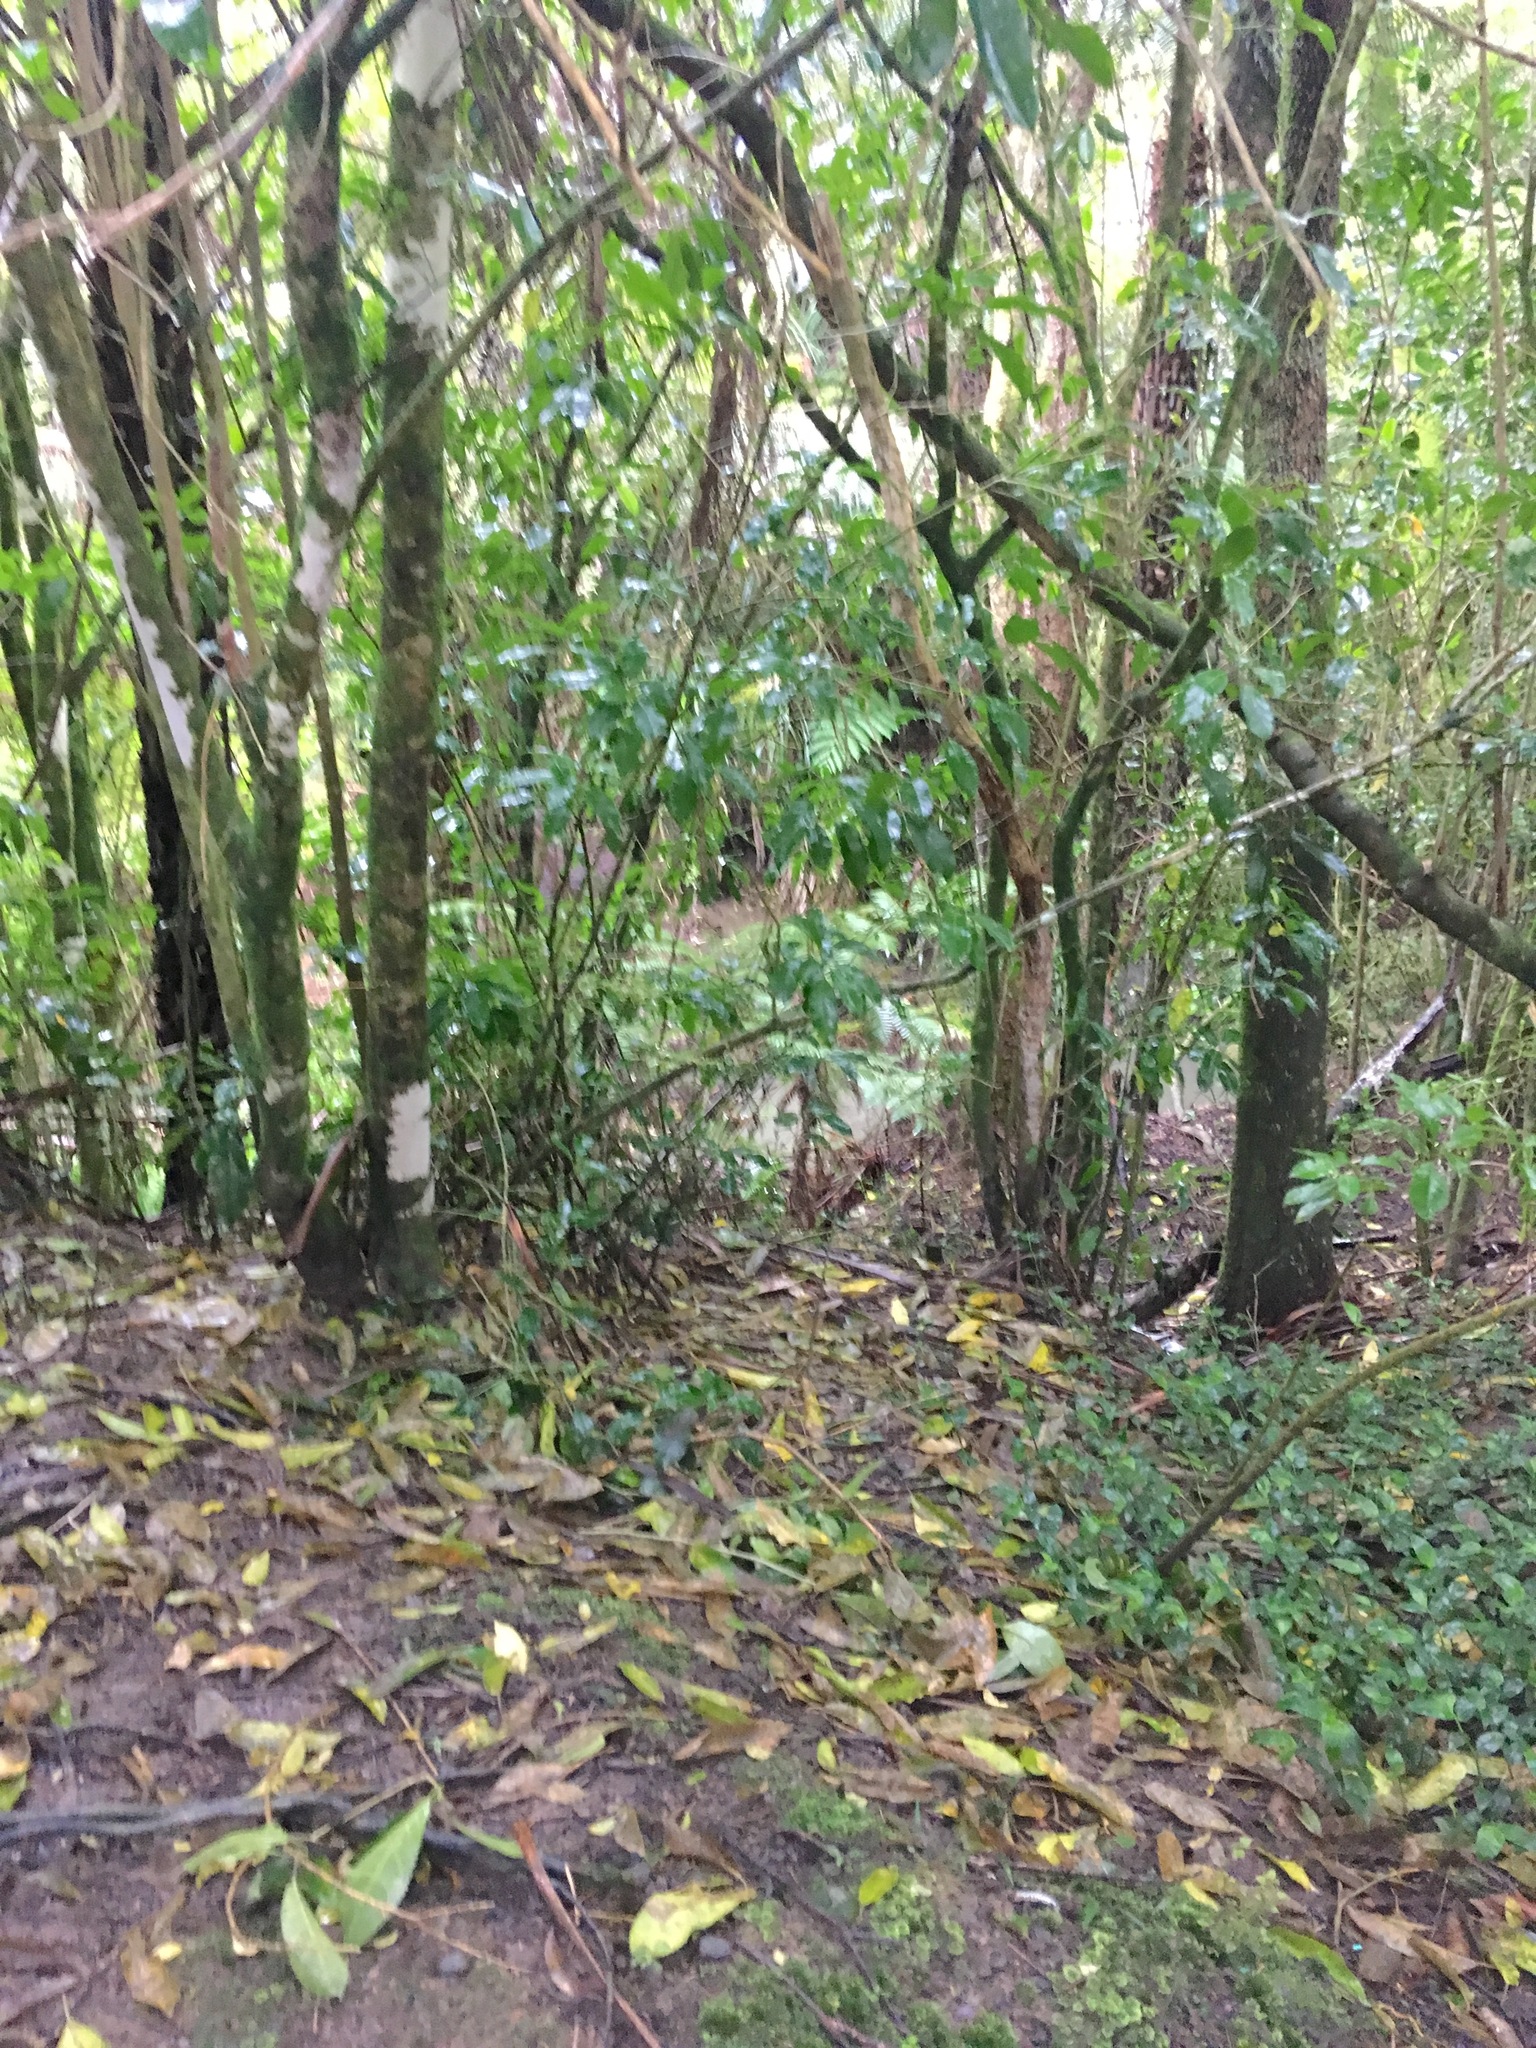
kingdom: Plantae
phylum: Tracheophyta
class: Liliopsida
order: Commelinales
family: Commelinaceae
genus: Tradescantia
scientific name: Tradescantia fluminensis
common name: Wandering-jew
